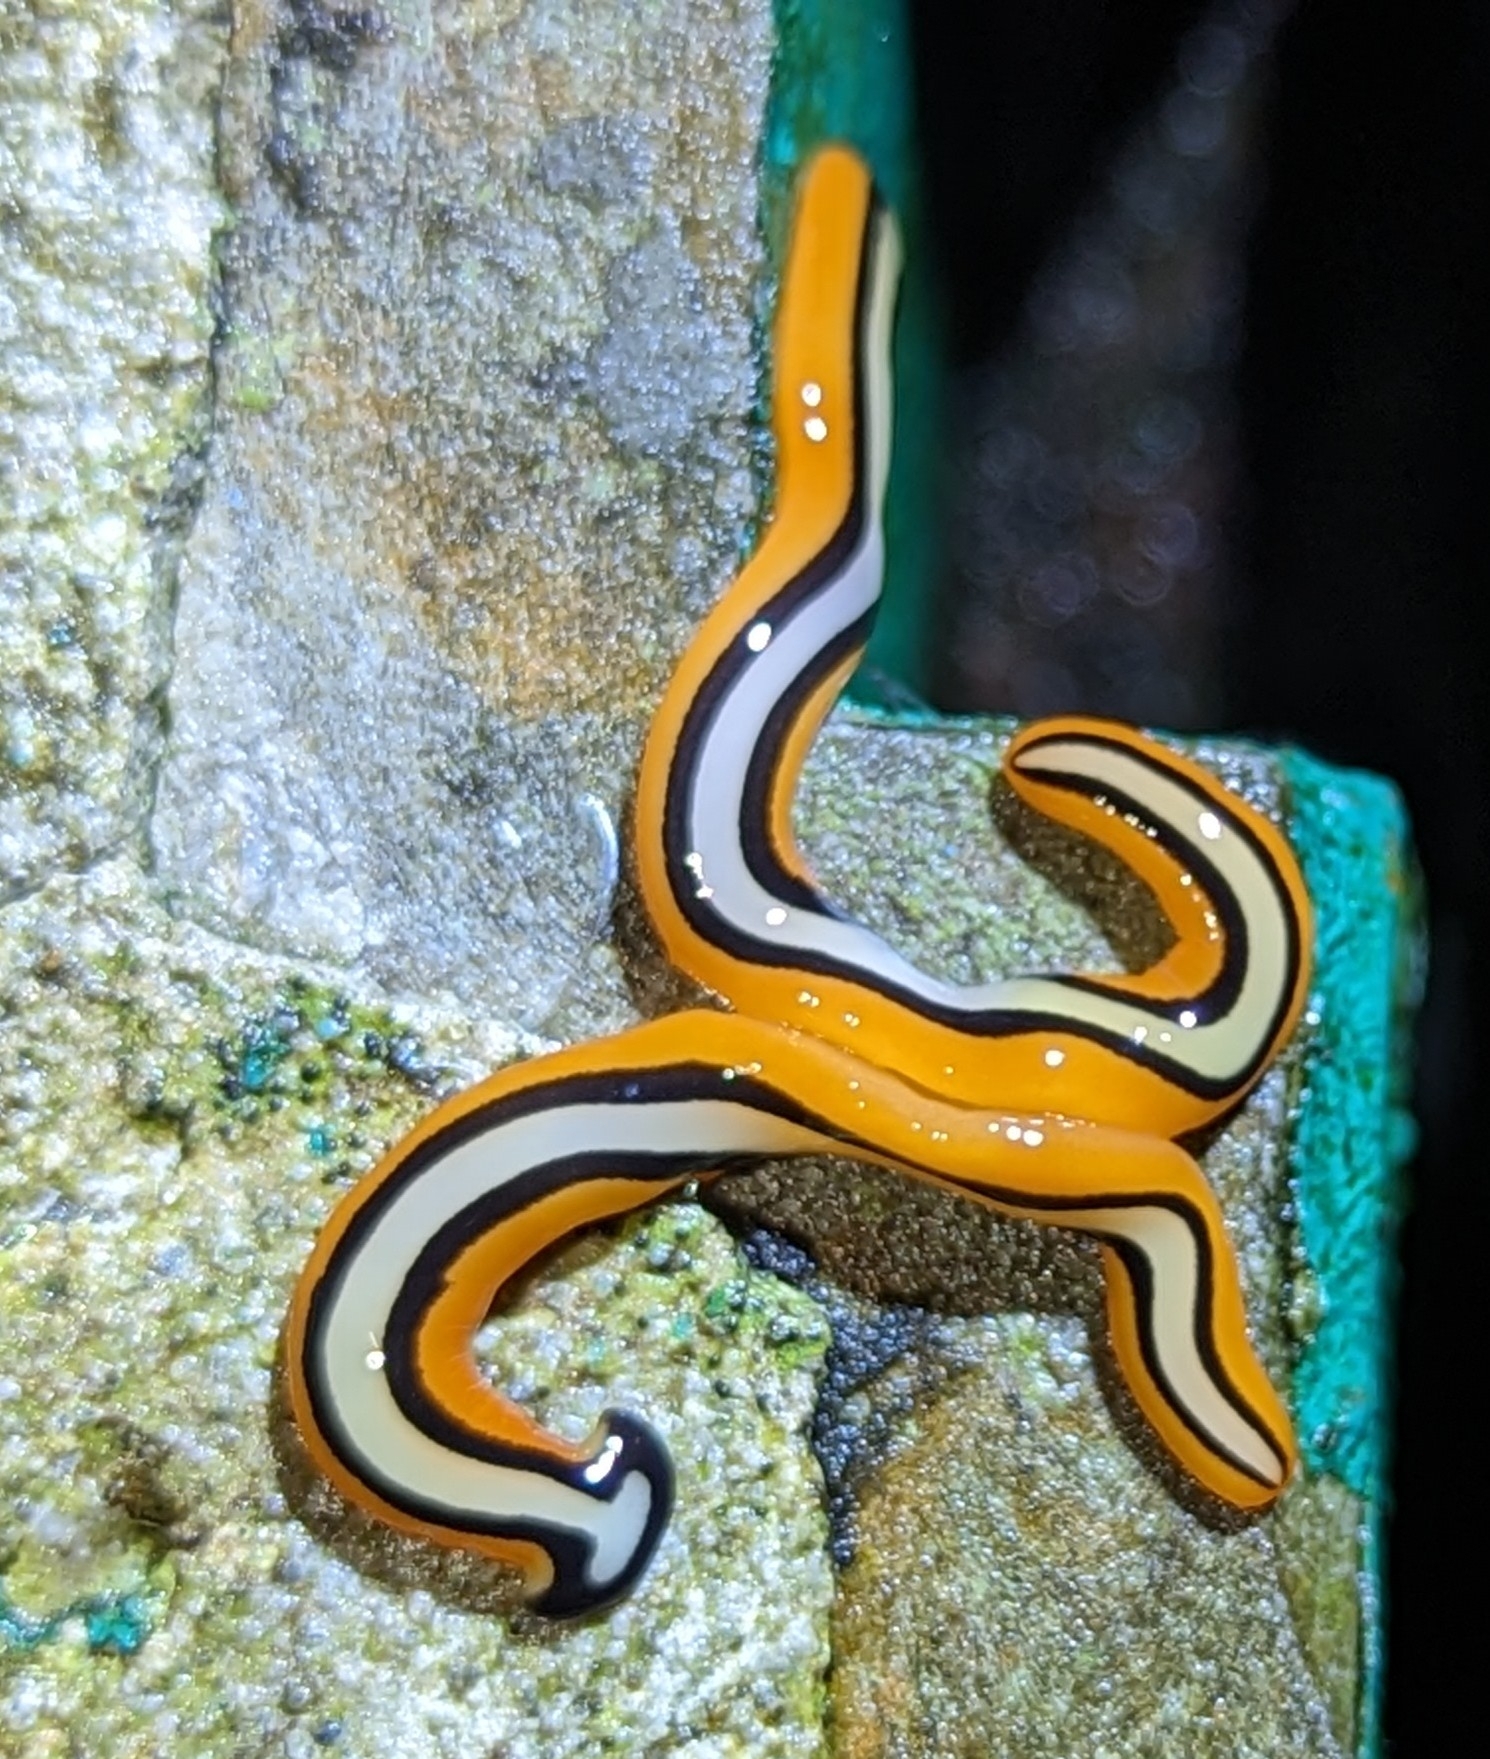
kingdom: Animalia
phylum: Platyhelminthes
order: Tricladida
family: Geoplanidae
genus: Bipalium
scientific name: Bipalium choristosperma
